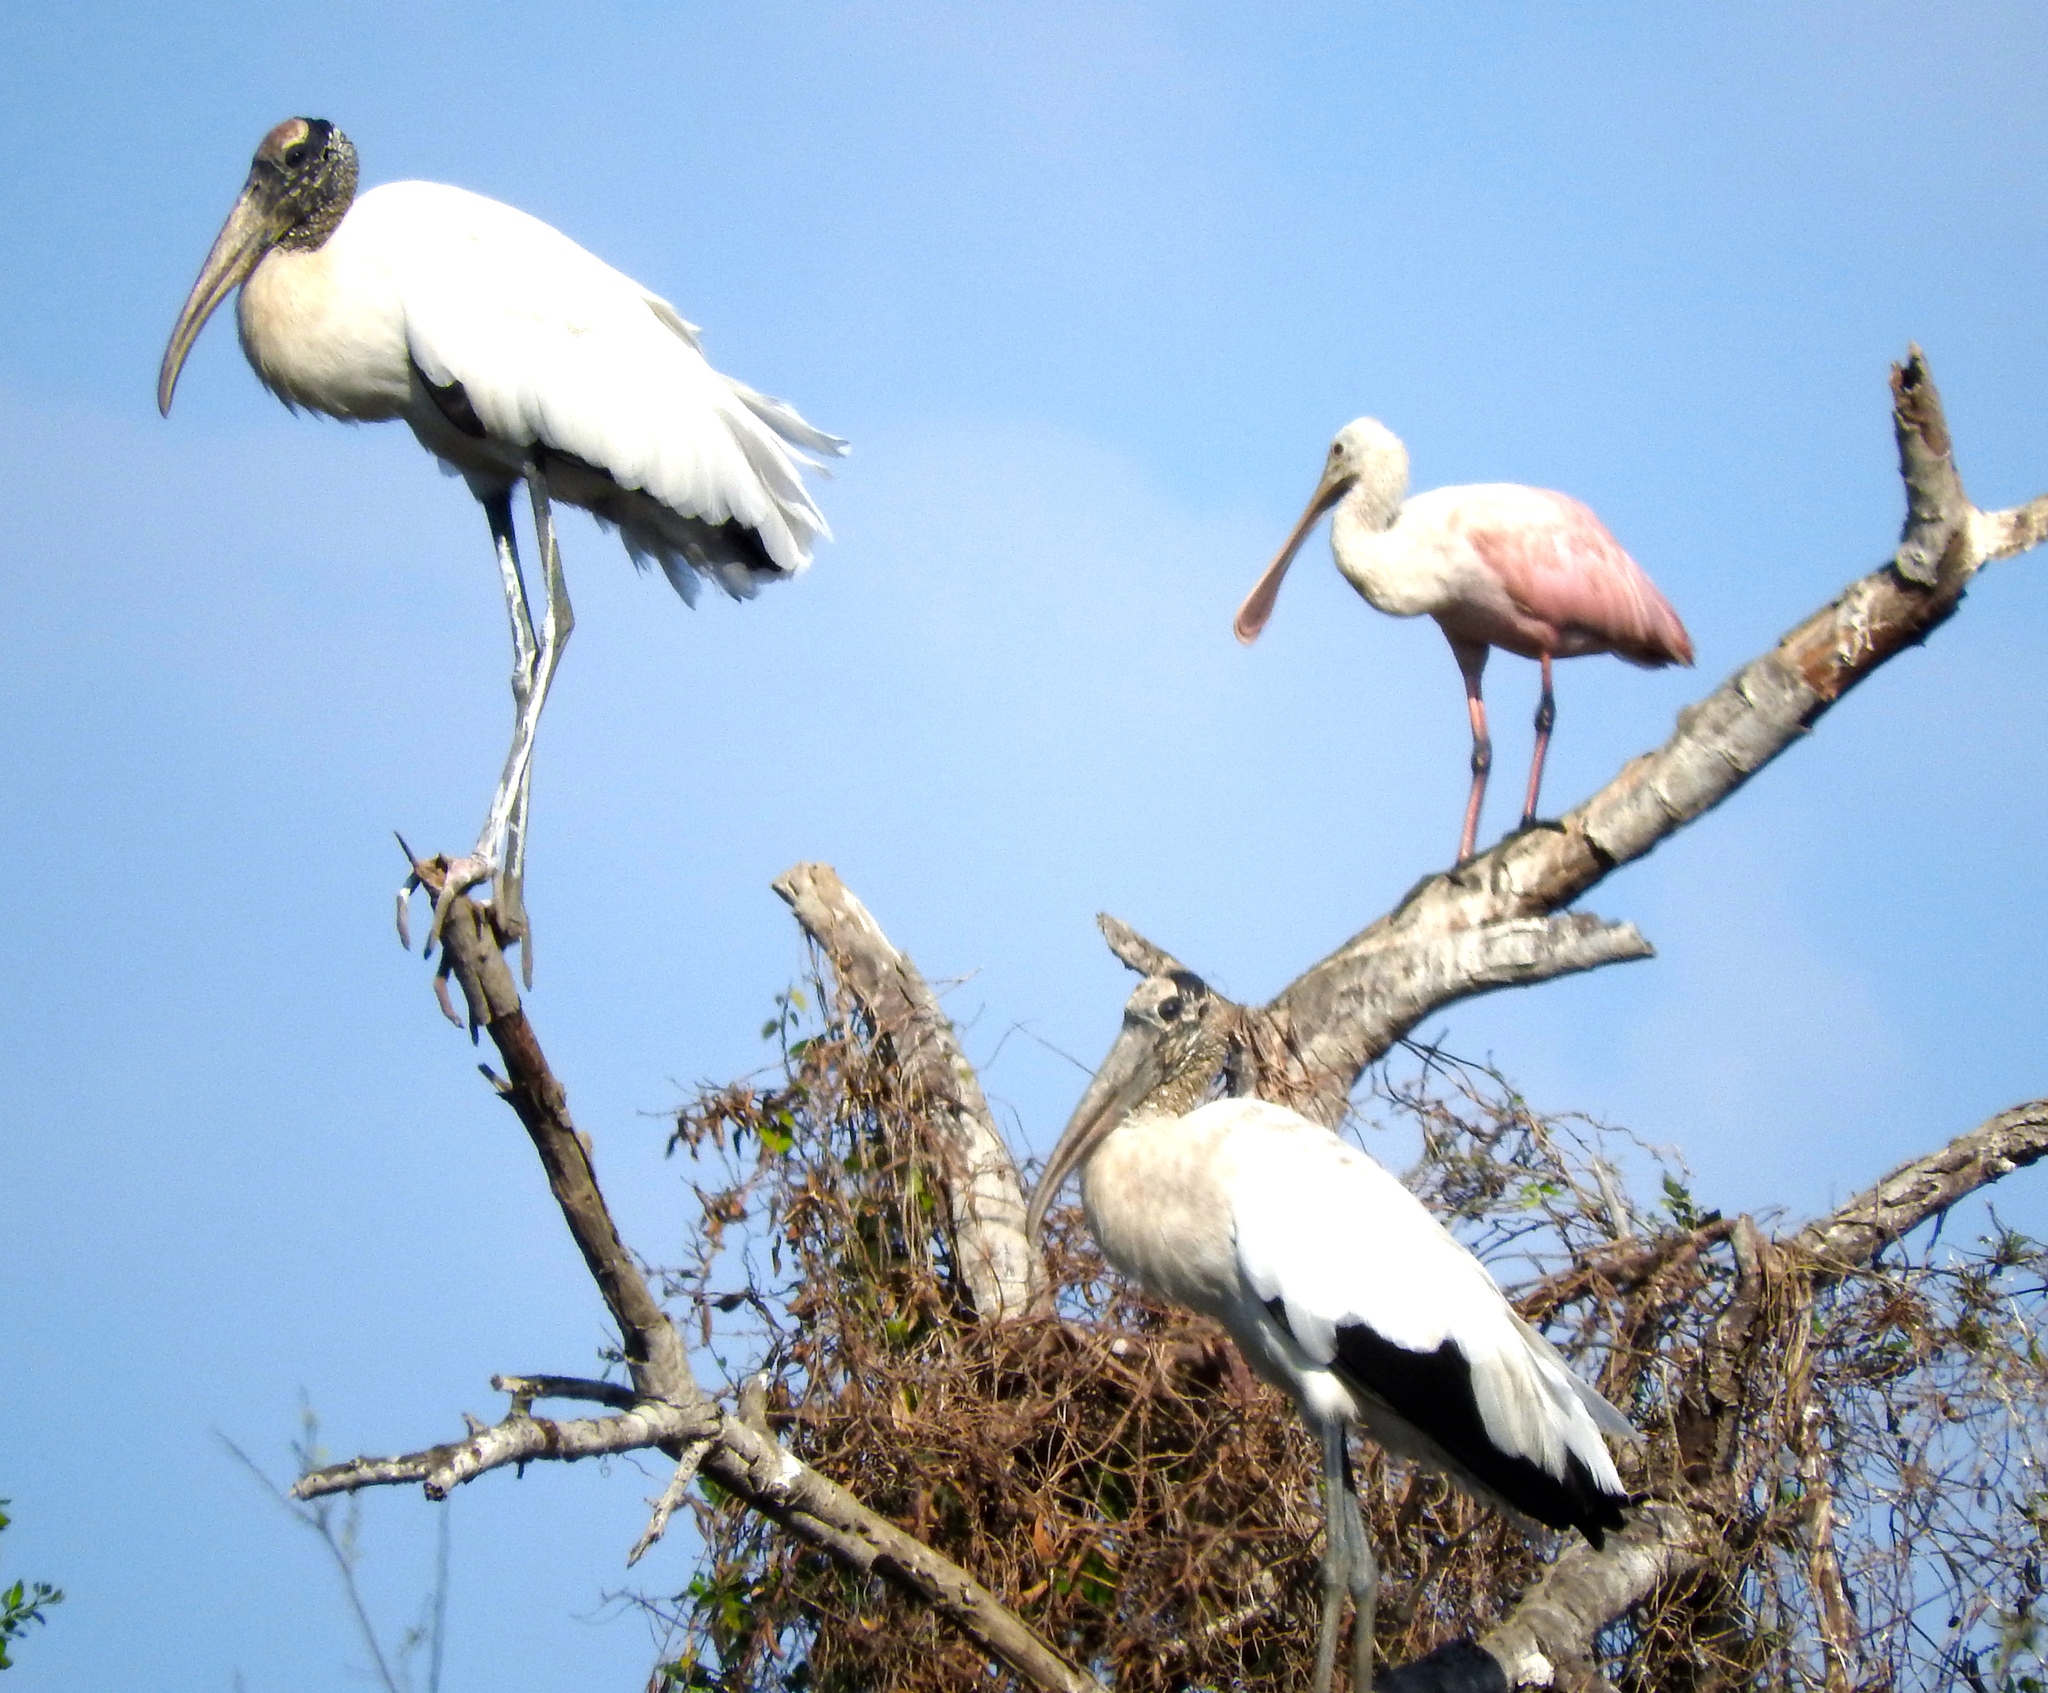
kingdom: Animalia
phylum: Chordata
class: Aves
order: Ciconiiformes
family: Ciconiidae
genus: Mycteria
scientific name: Mycteria americana
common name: Wood stork
